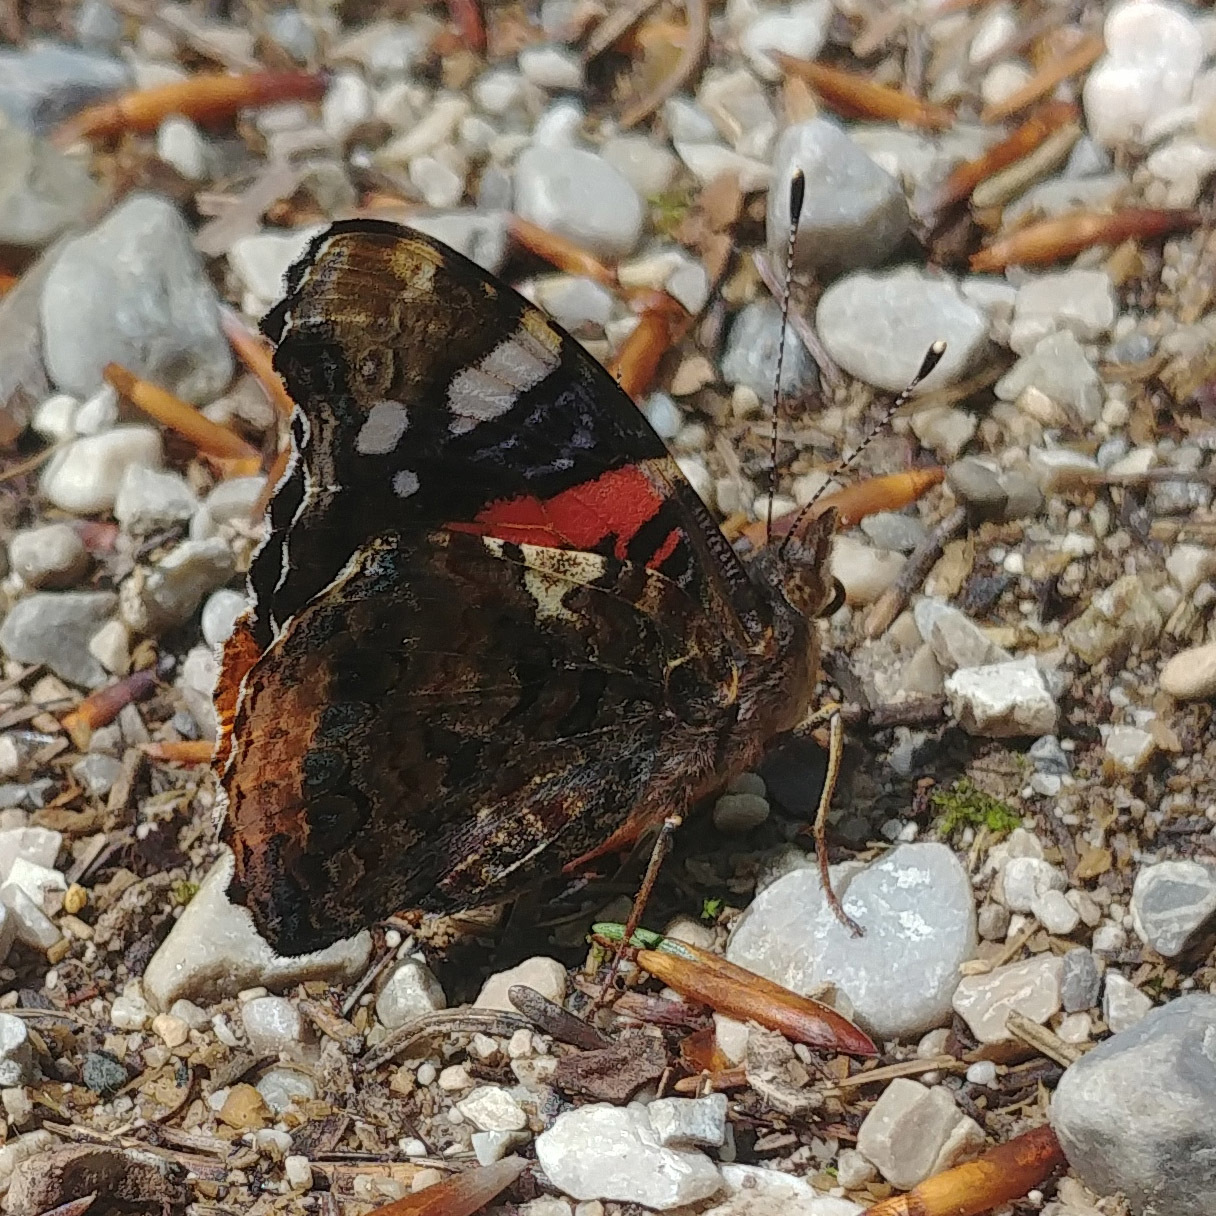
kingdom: Animalia
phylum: Arthropoda
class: Insecta
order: Lepidoptera
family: Nymphalidae
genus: Vanessa
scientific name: Vanessa atalanta
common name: Red admiral
